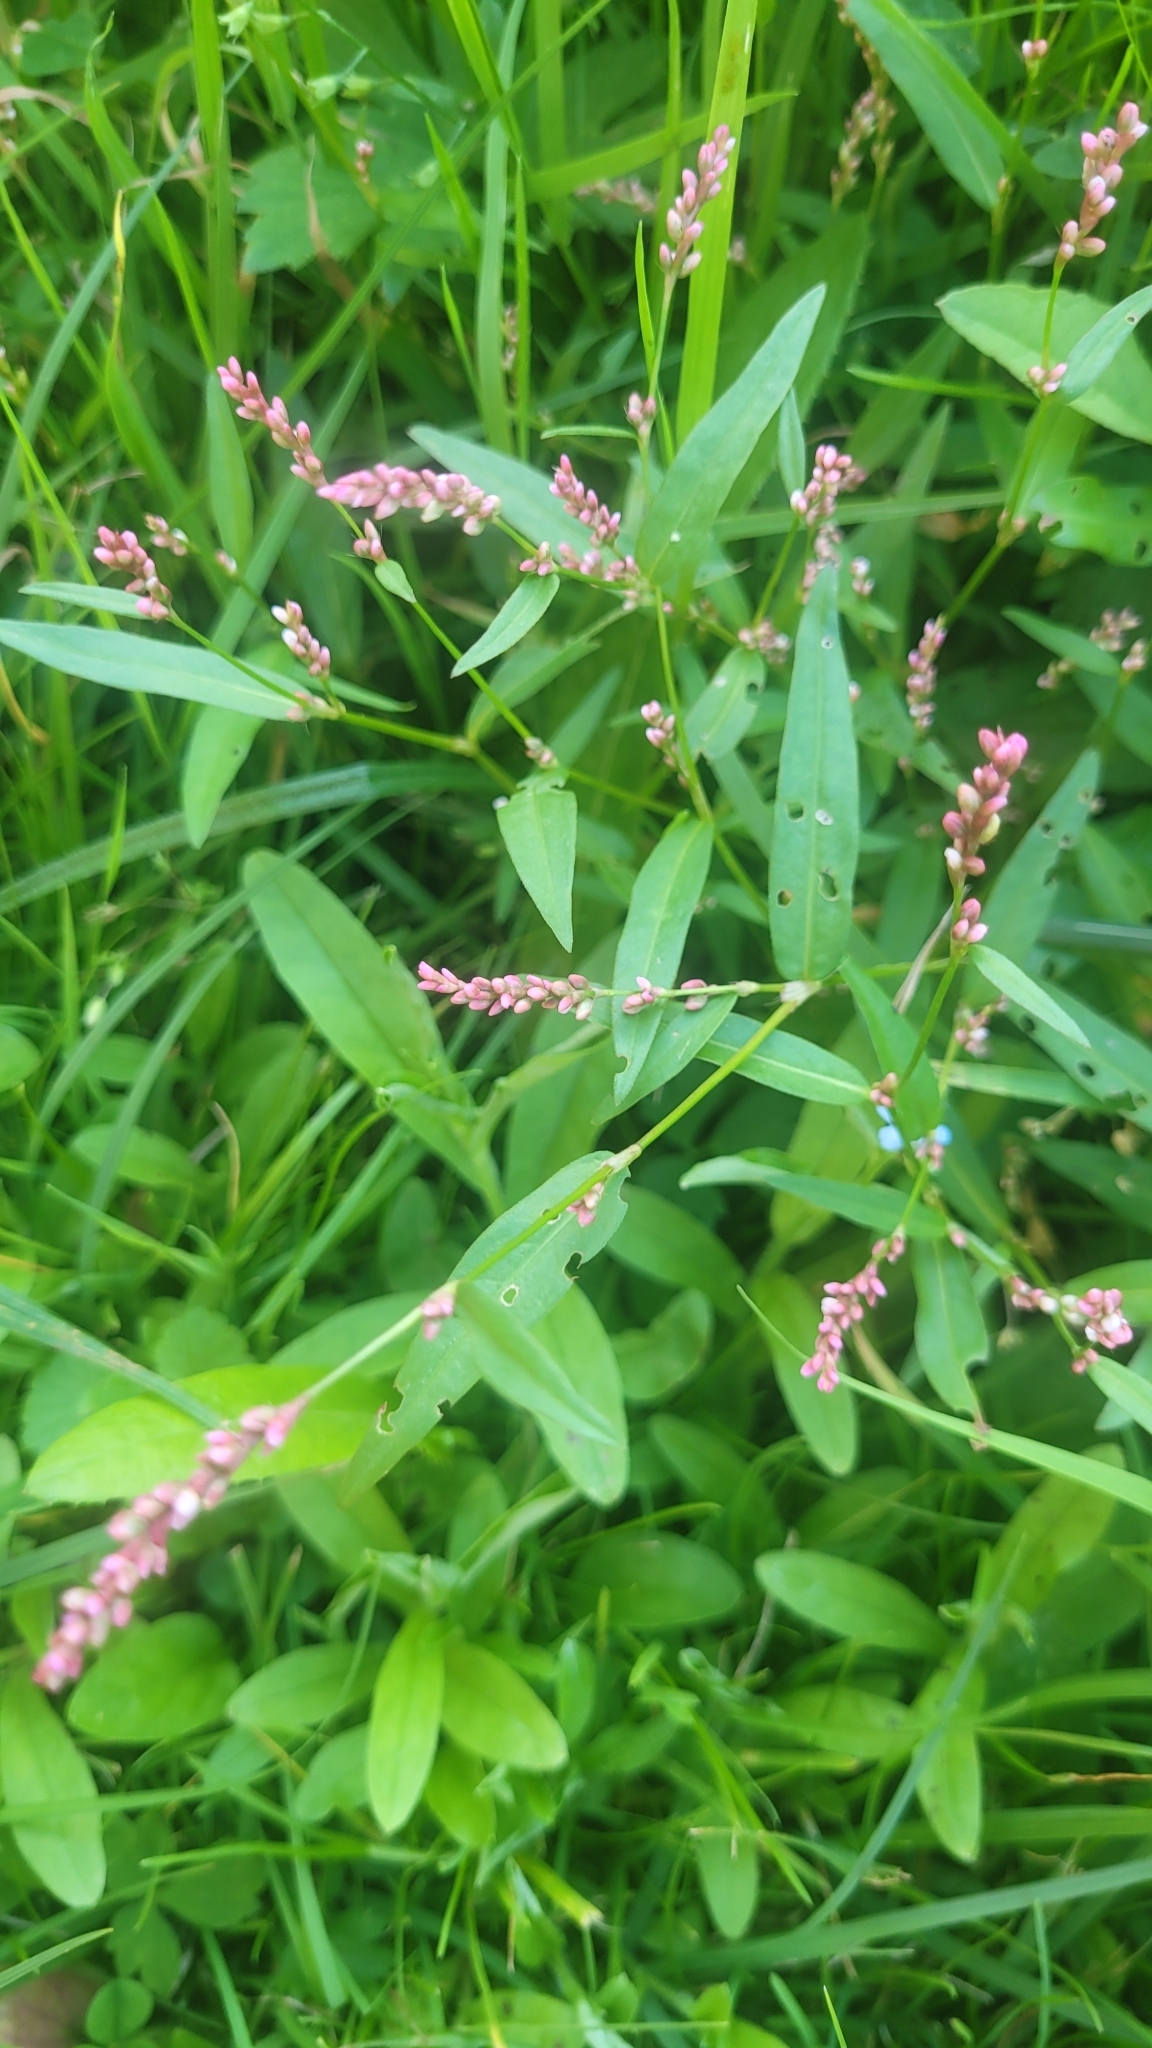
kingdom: Plantae
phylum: Tracheophyta
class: Magnoliopsida
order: Caryophyllales
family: Polygonaceae
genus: Persicaria
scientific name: Persicaria minor
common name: Small water-pepper
